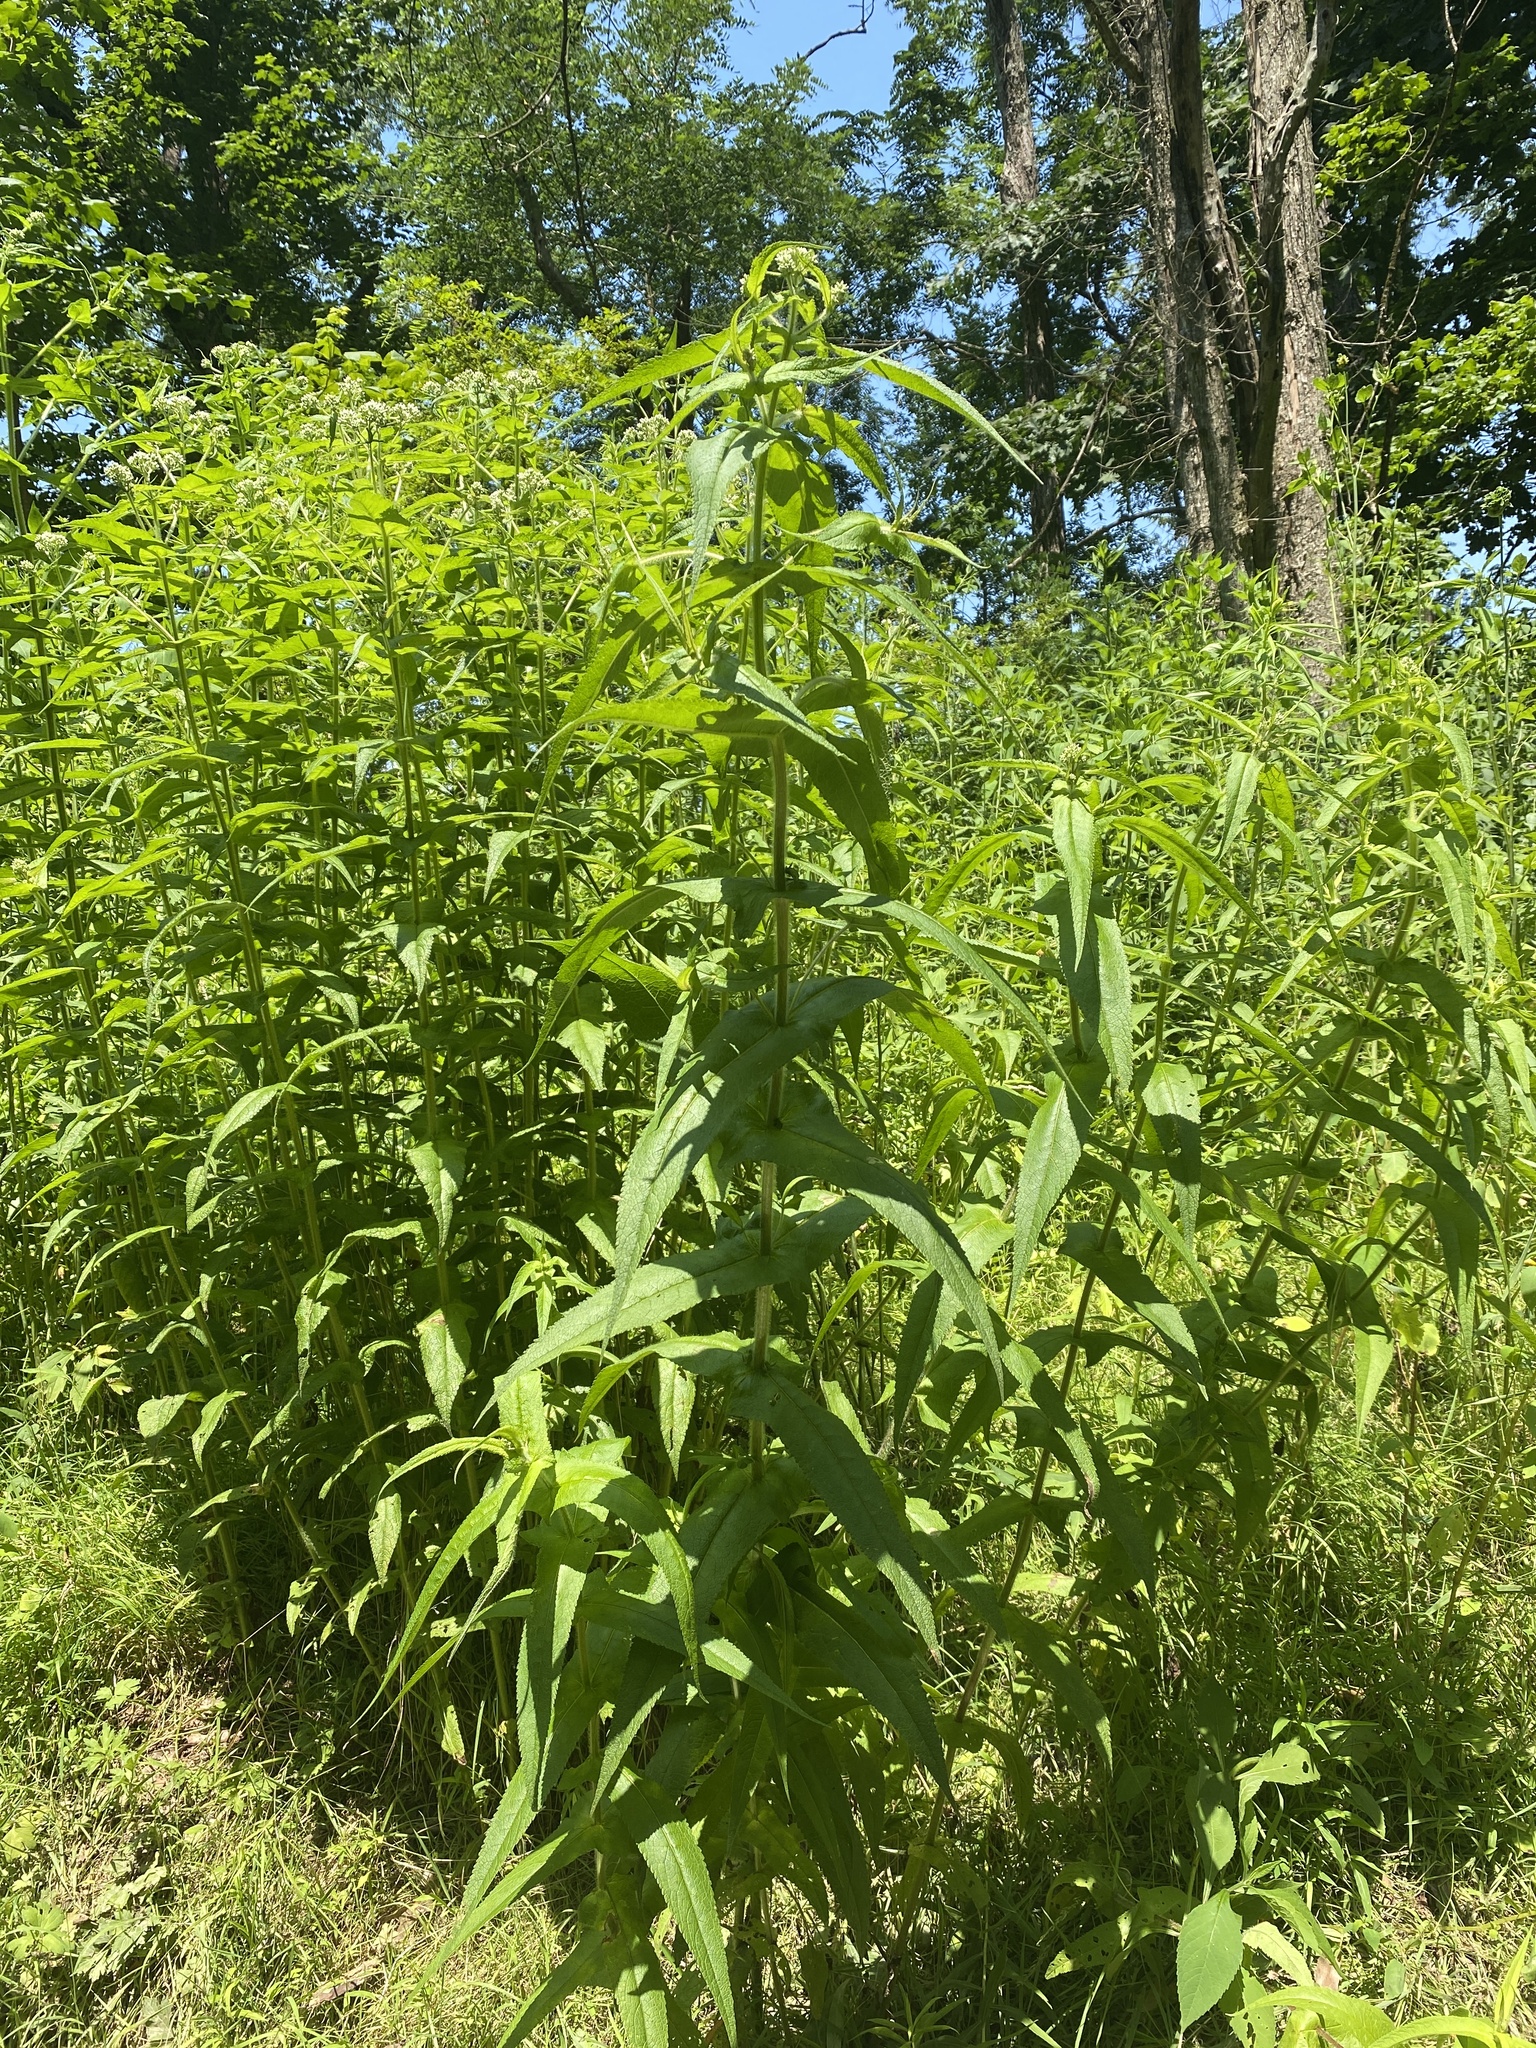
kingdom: Plantae
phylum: Tracheophyta
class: Magnoliopsida
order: Asterales
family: Asteraceae
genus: Eupatorium
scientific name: Eupatorium perfoliatum
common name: Boneset
